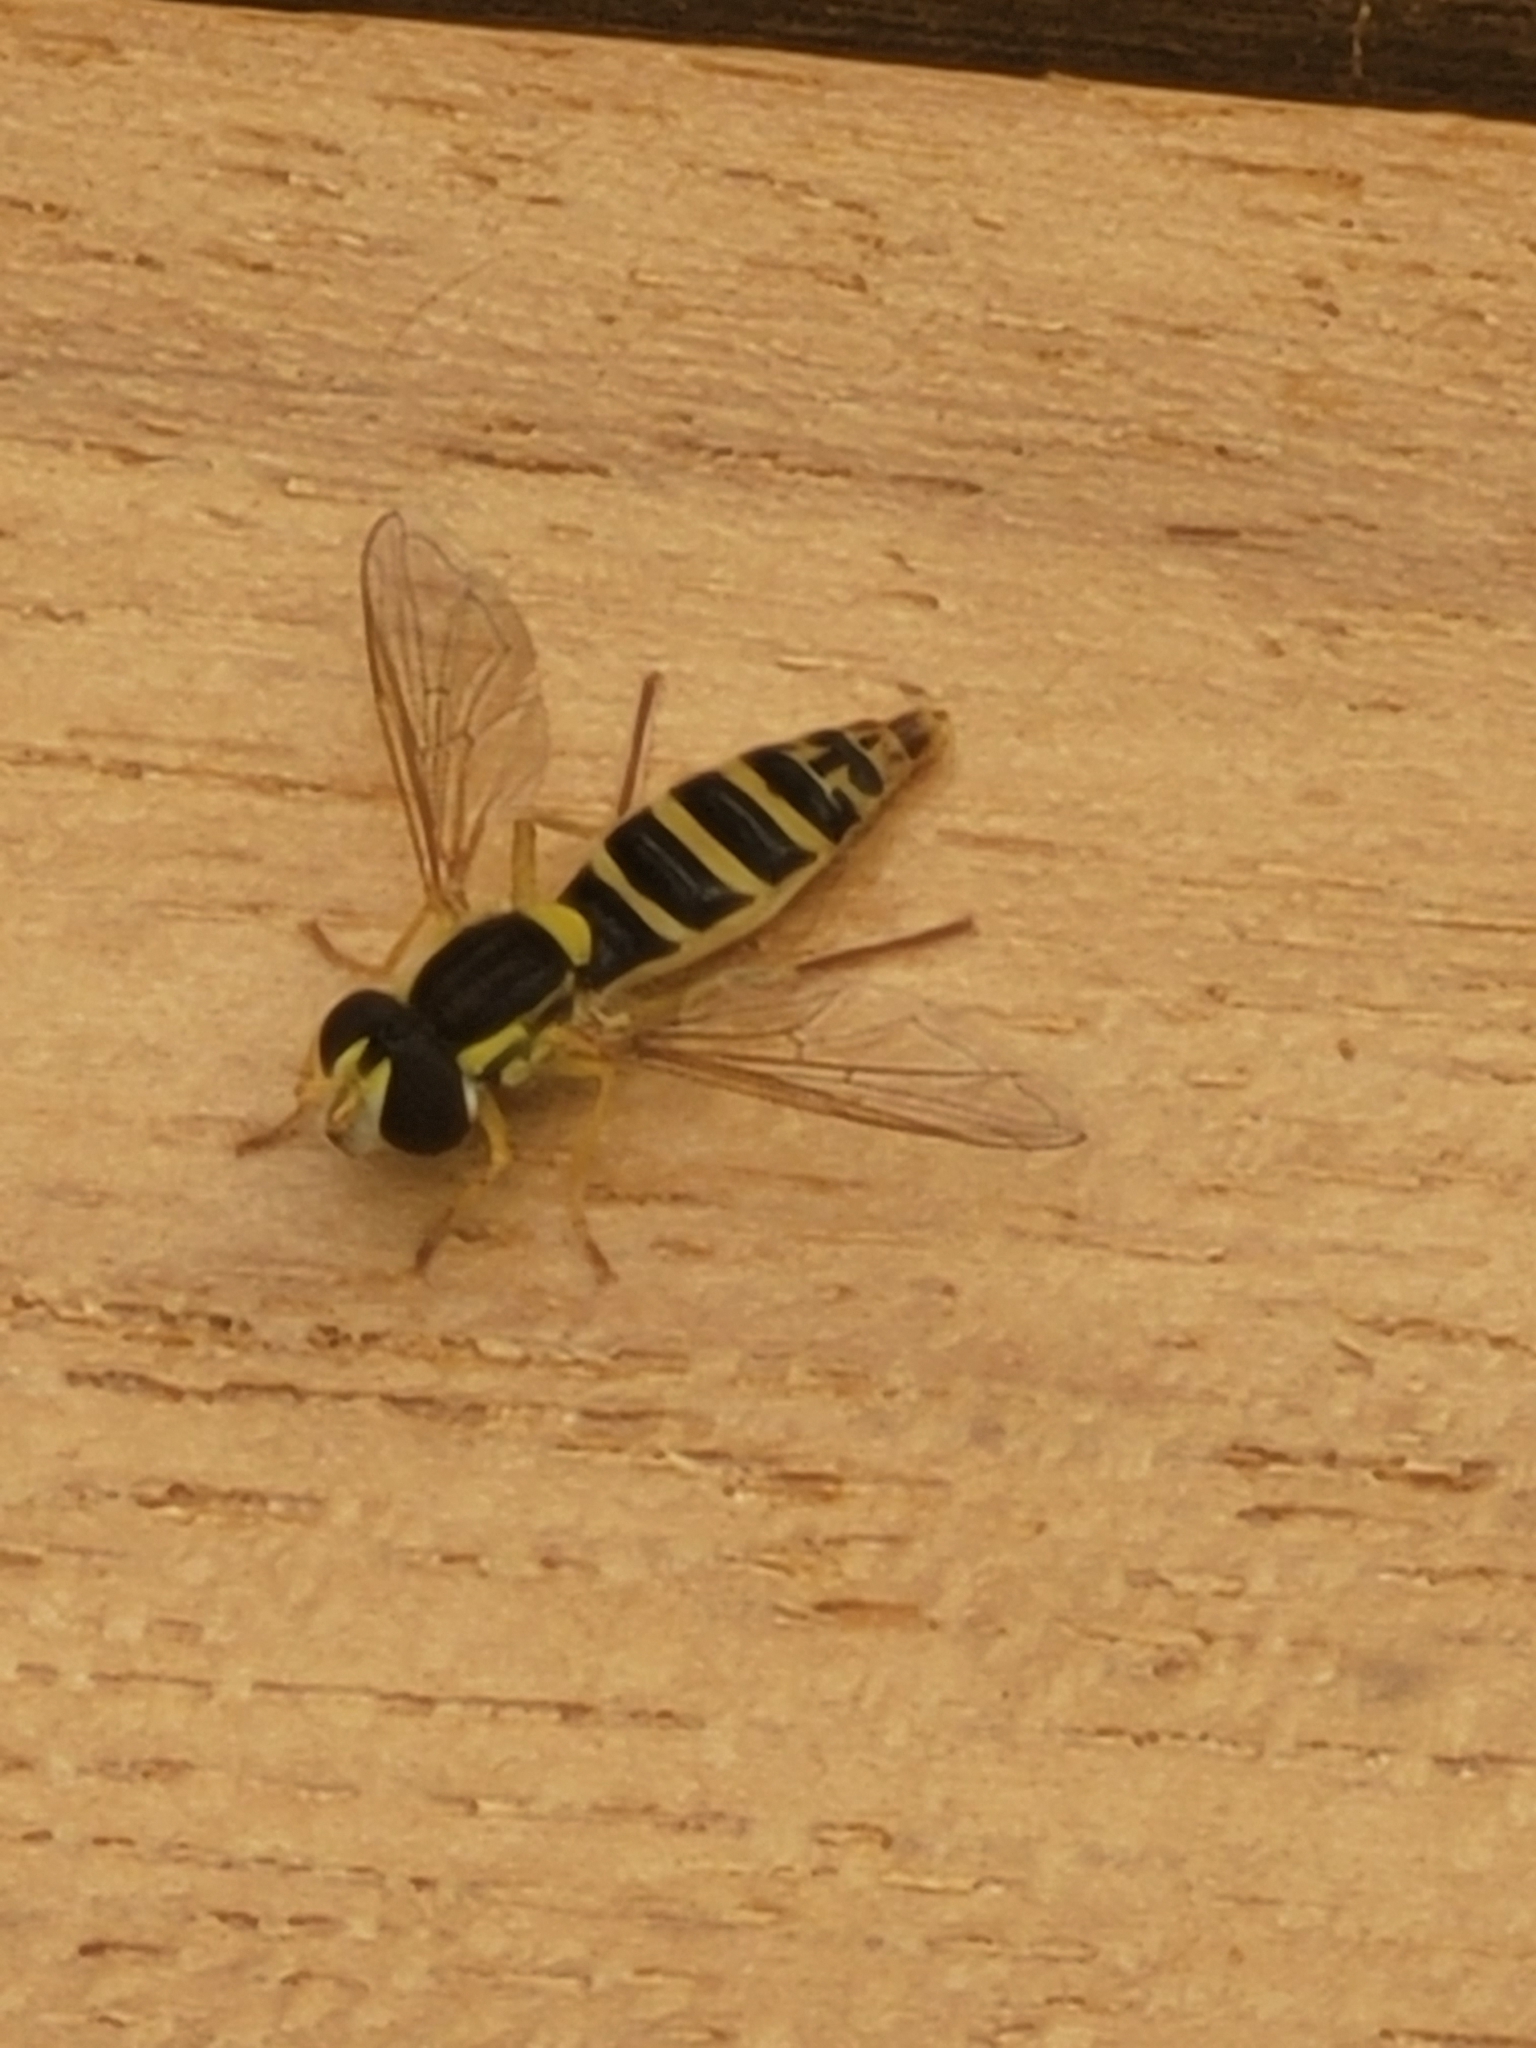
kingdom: Animalia
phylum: Arthropoda
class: Insecta
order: Diptera
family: Syrphidae
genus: Sphaerophoria
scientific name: Sphaerophoria
